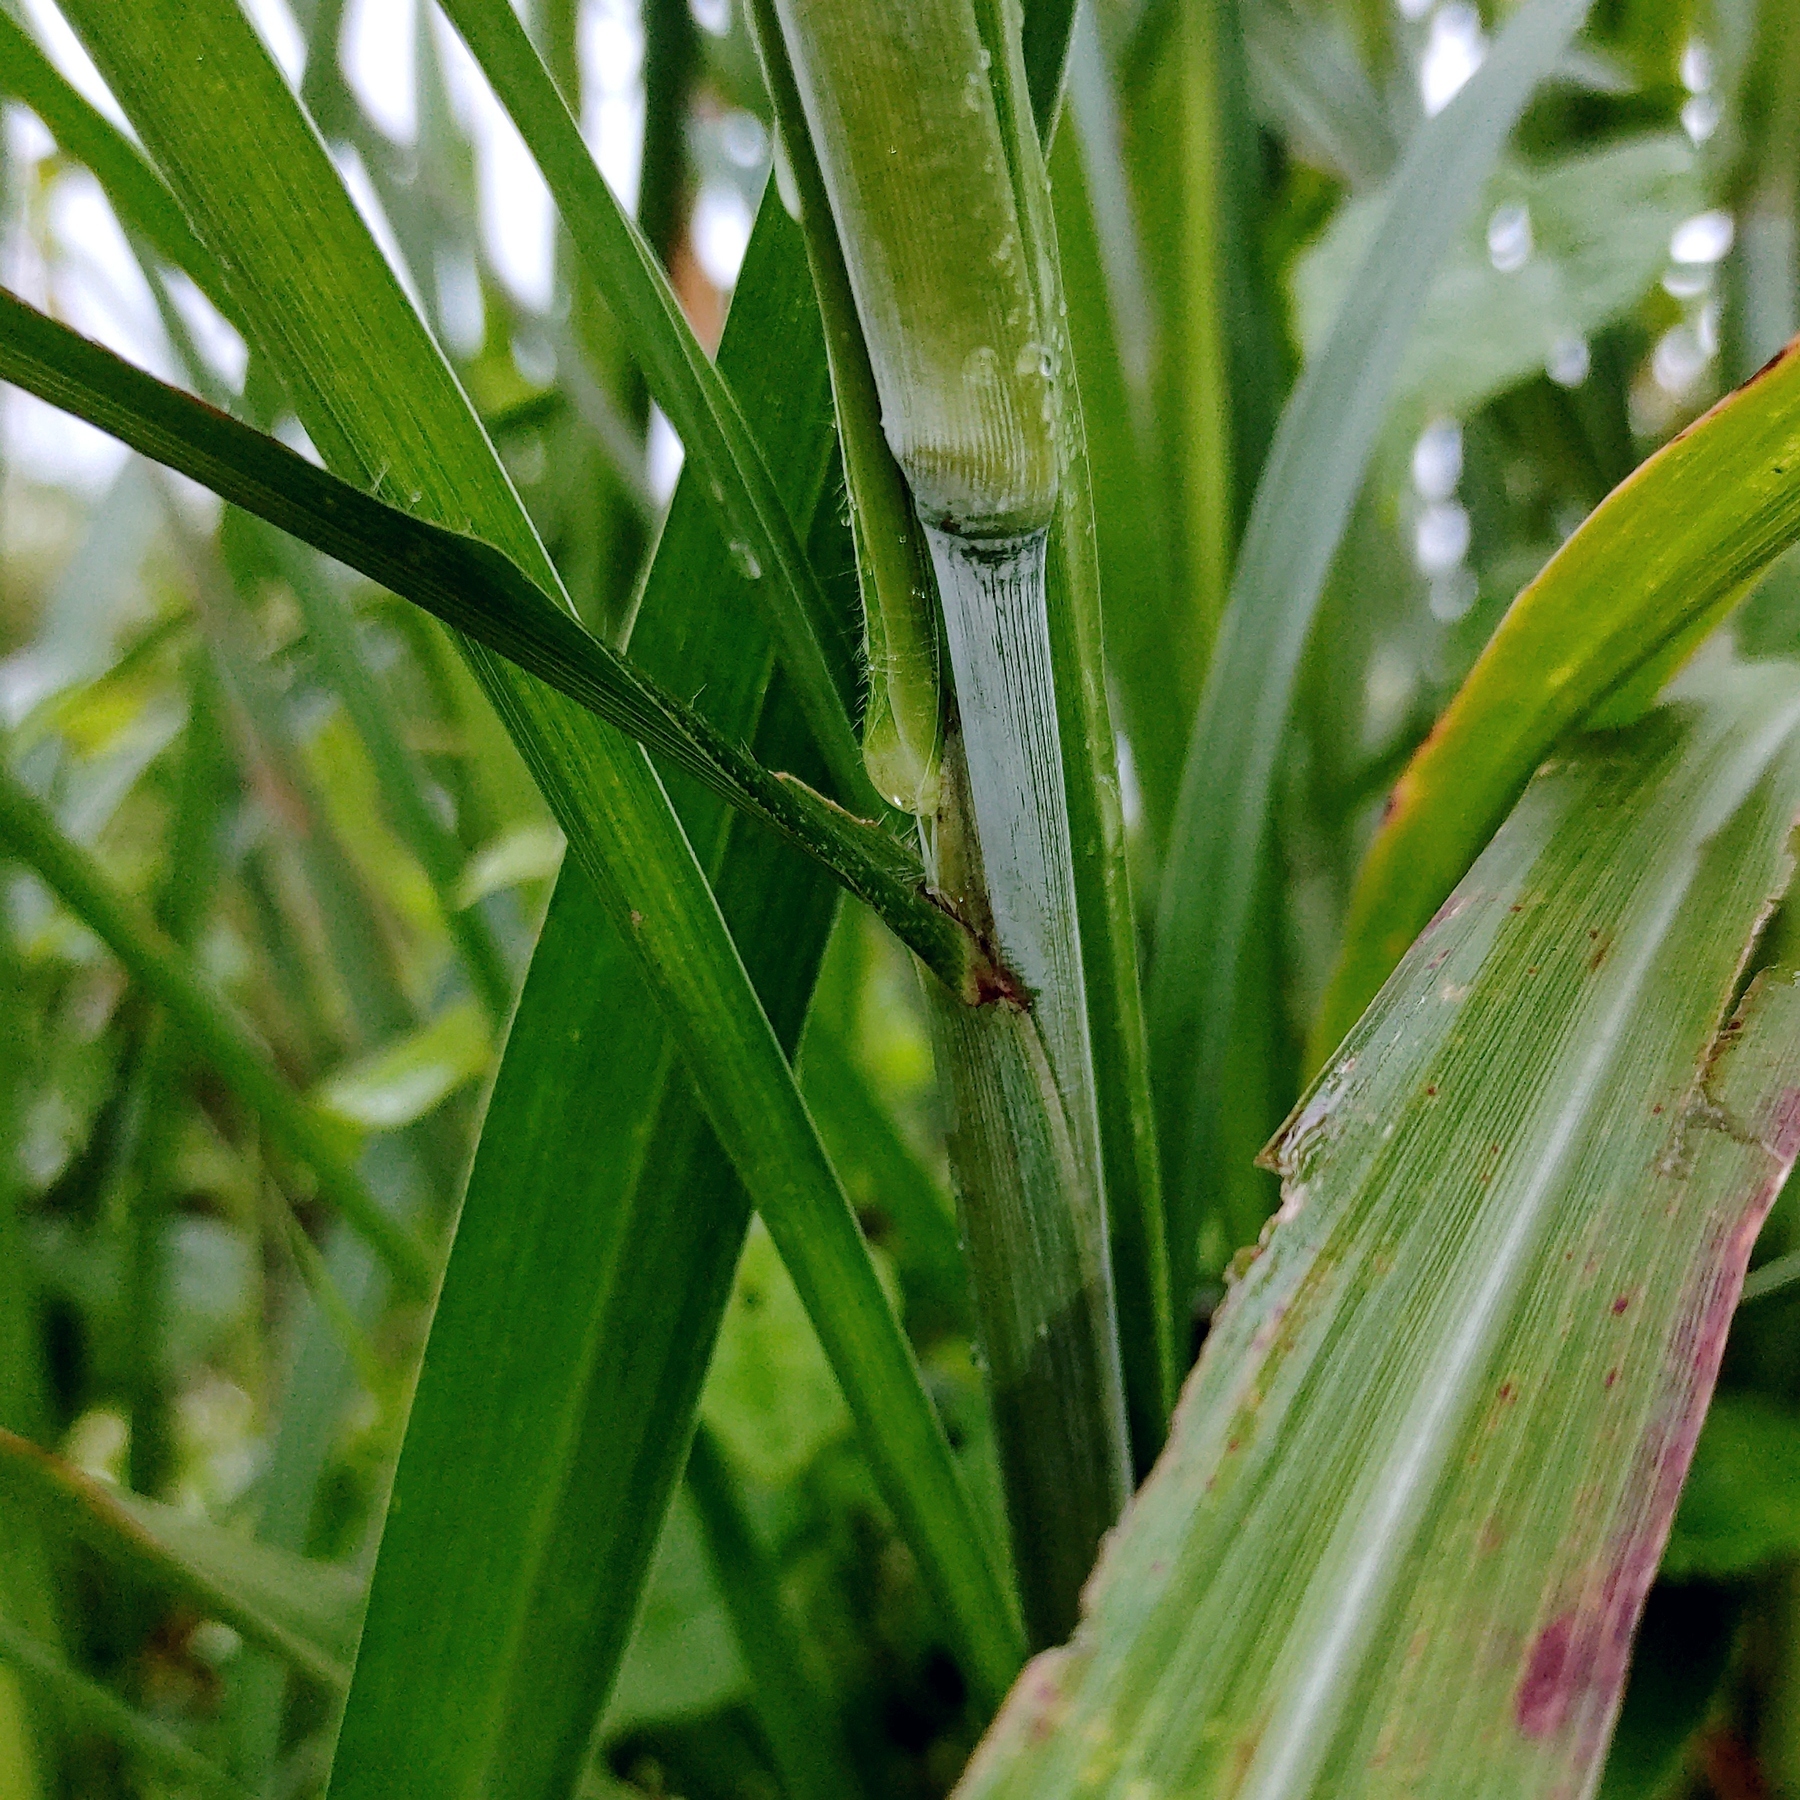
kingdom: Plantae
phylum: Tracheophyta
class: Liliopsida
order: Poales
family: Poaceae
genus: Cenchrus
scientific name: Cenchrus purpureus
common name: Elephant grass
